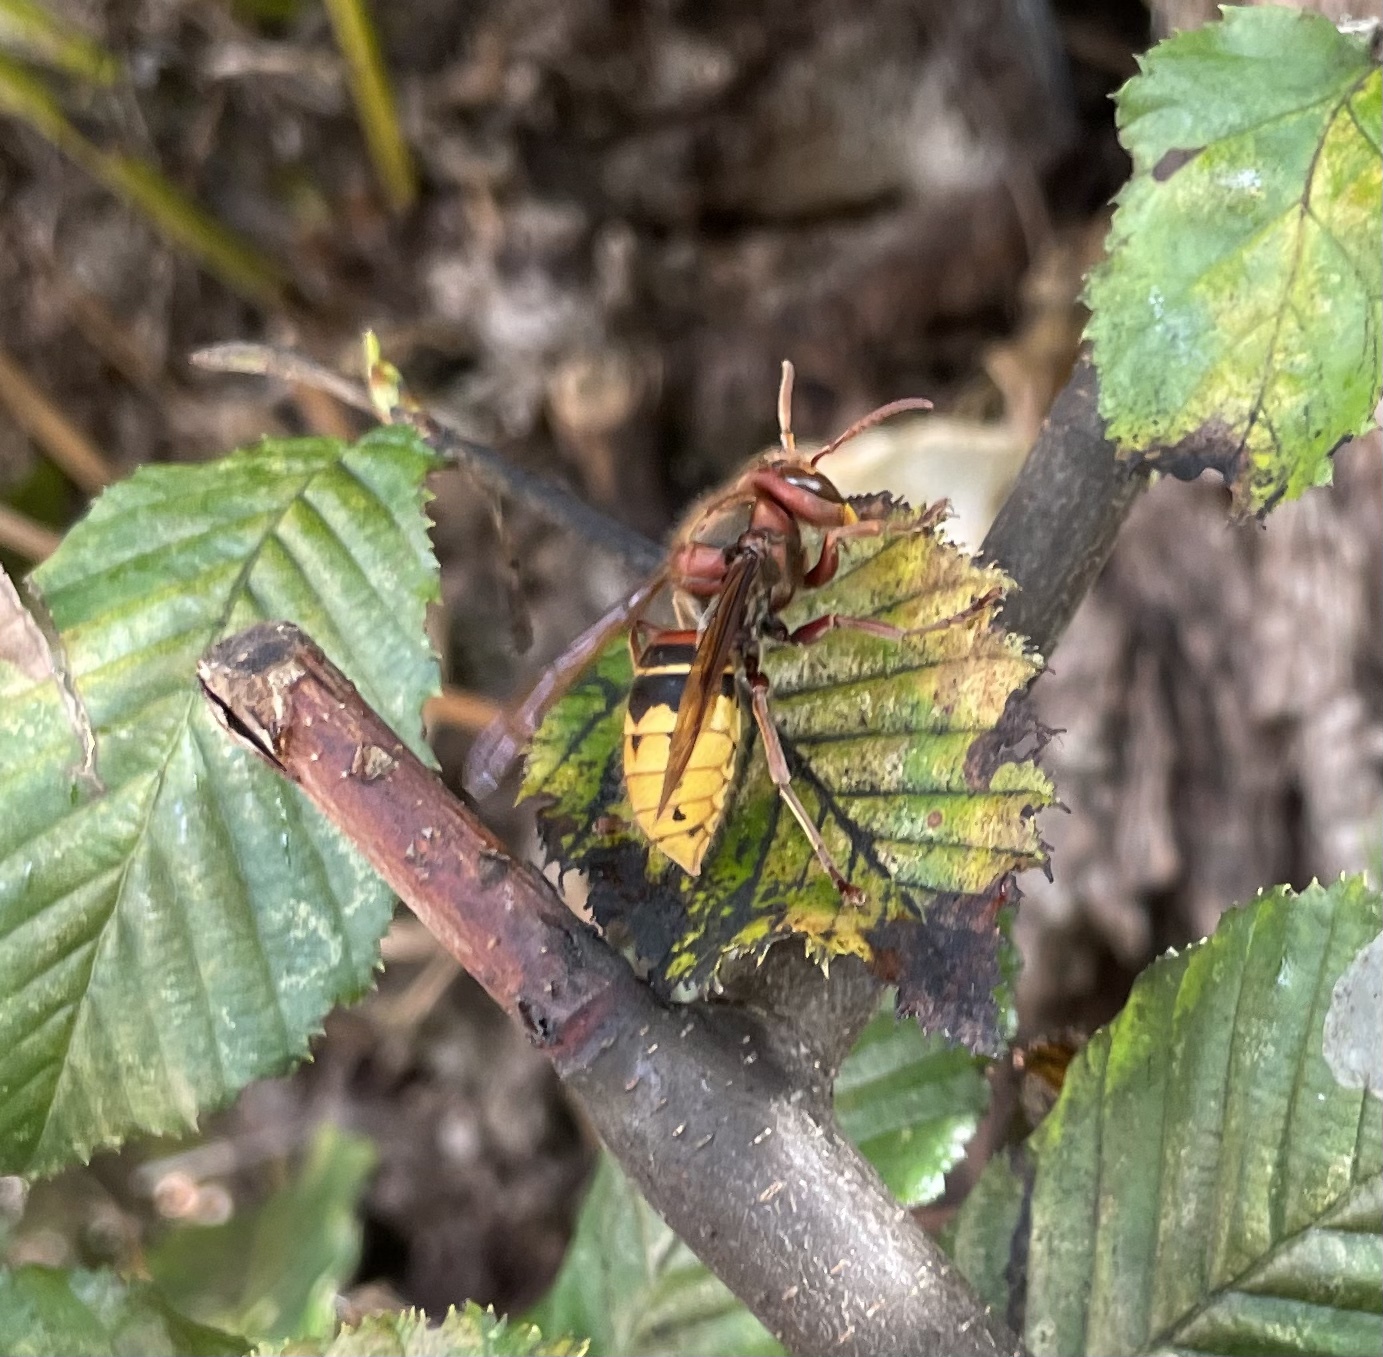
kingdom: Animalia
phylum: Arthropoda
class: Insecta
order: Hymenoptera
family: Vespidae
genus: Vespa
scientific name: Vespa crabro
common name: Hornet
